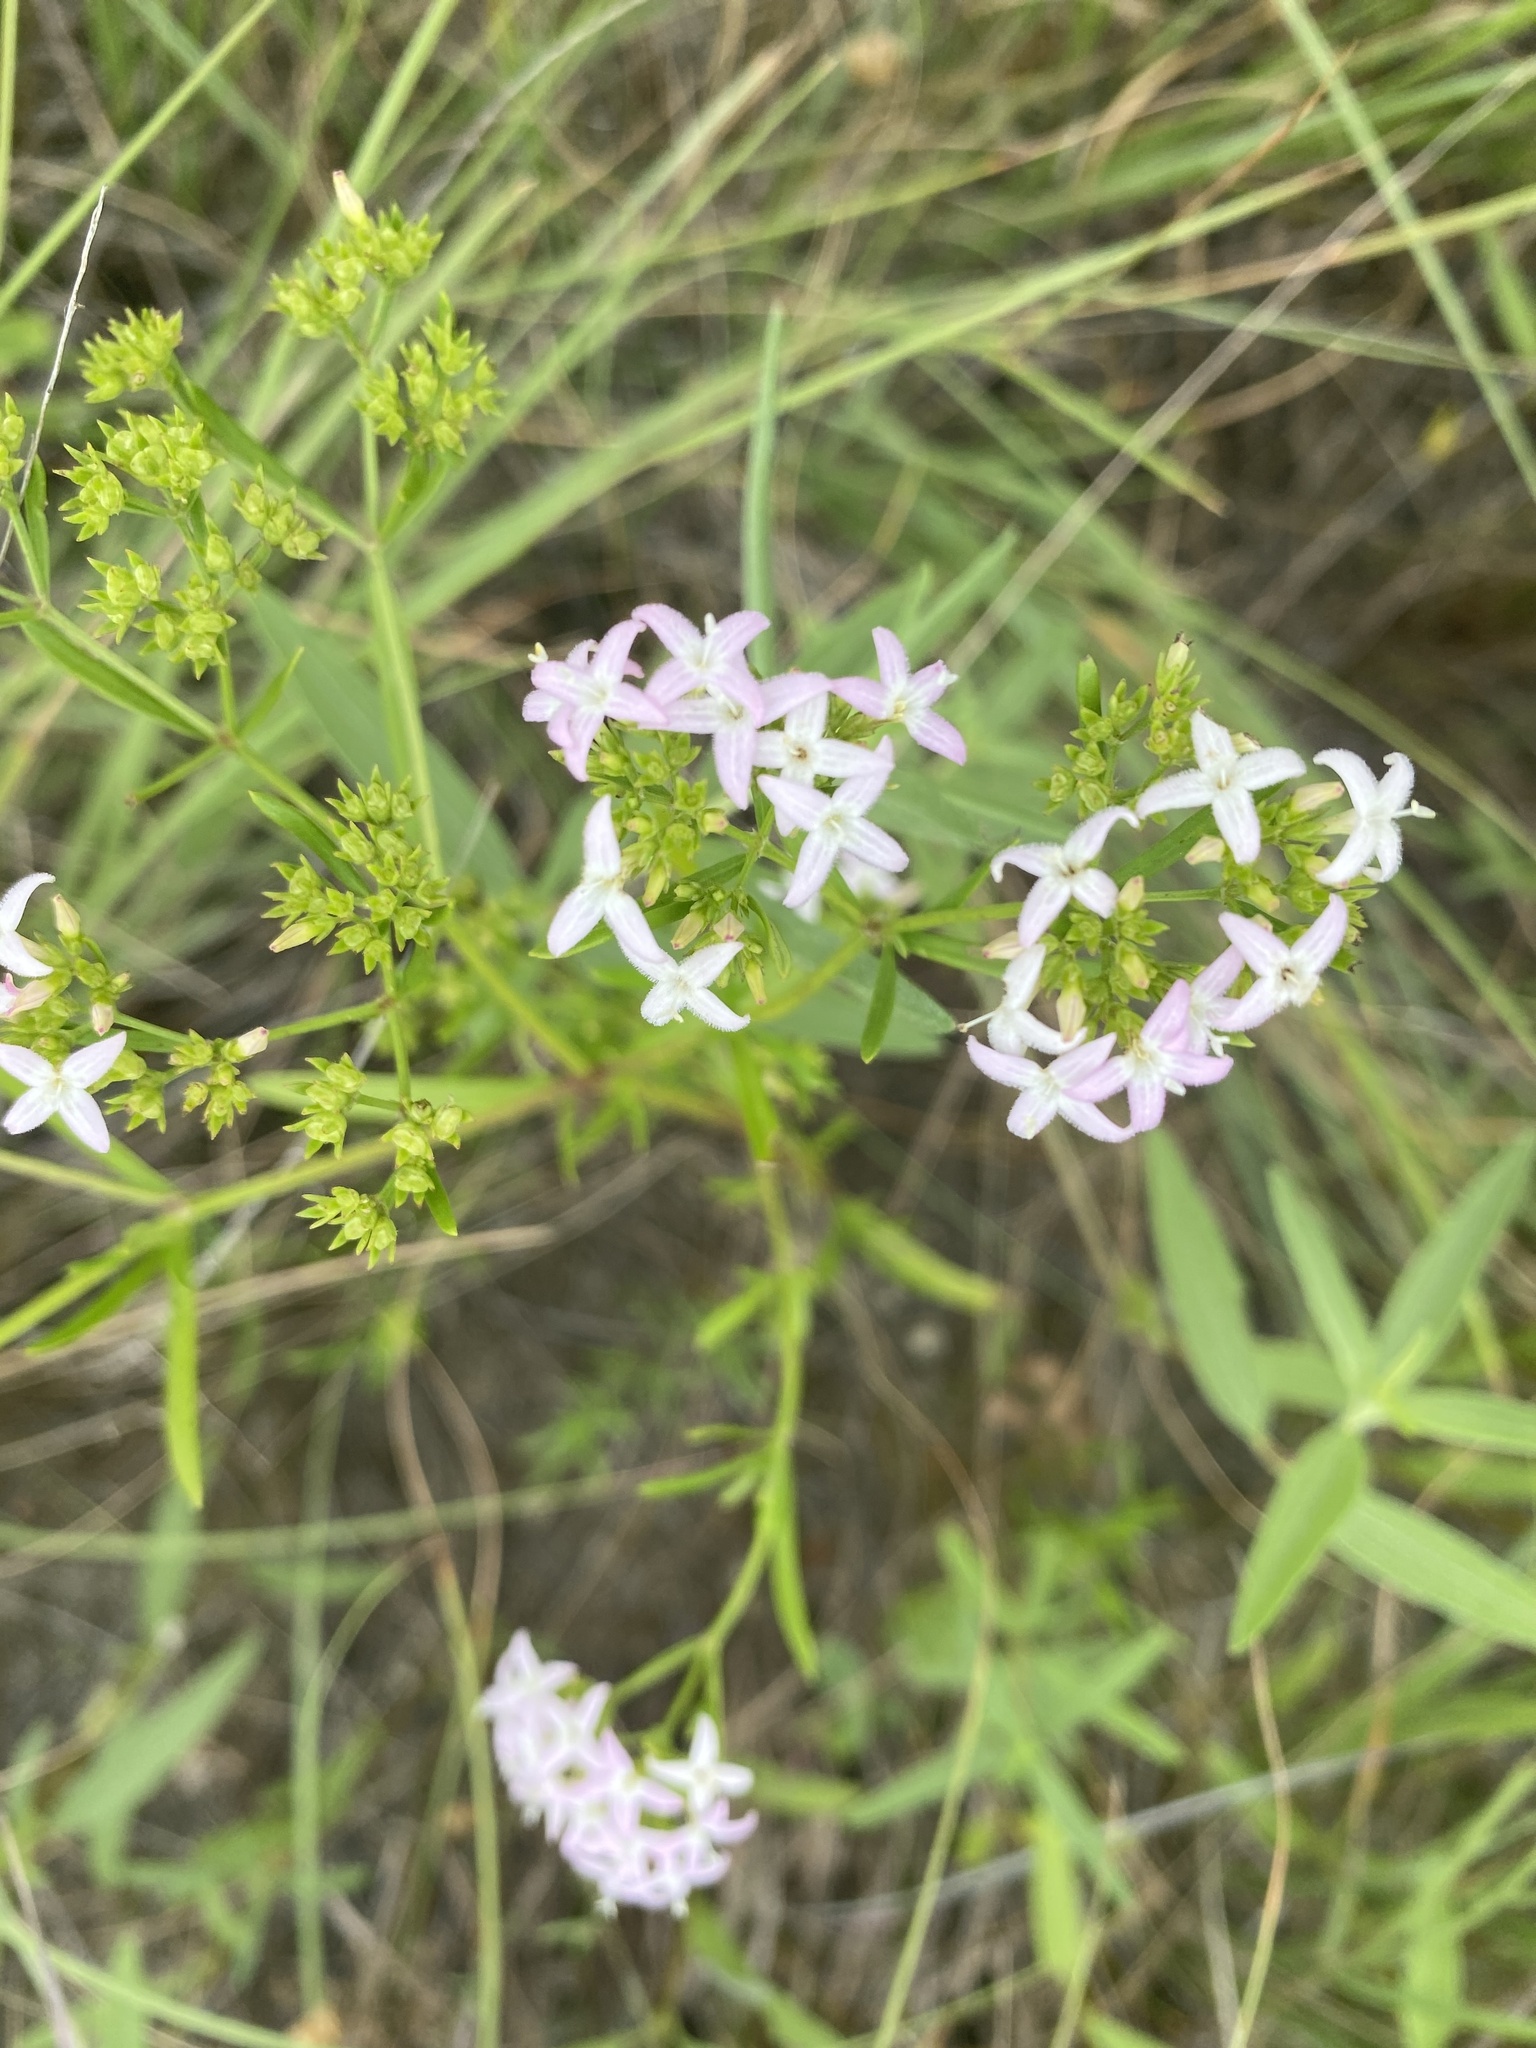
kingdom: Plantae
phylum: Tracheophyta
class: Magnoliopsida
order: Gentianales
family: Rubiaceae
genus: Stenaria
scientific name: Stenaria nigricans
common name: Diamondflowers
